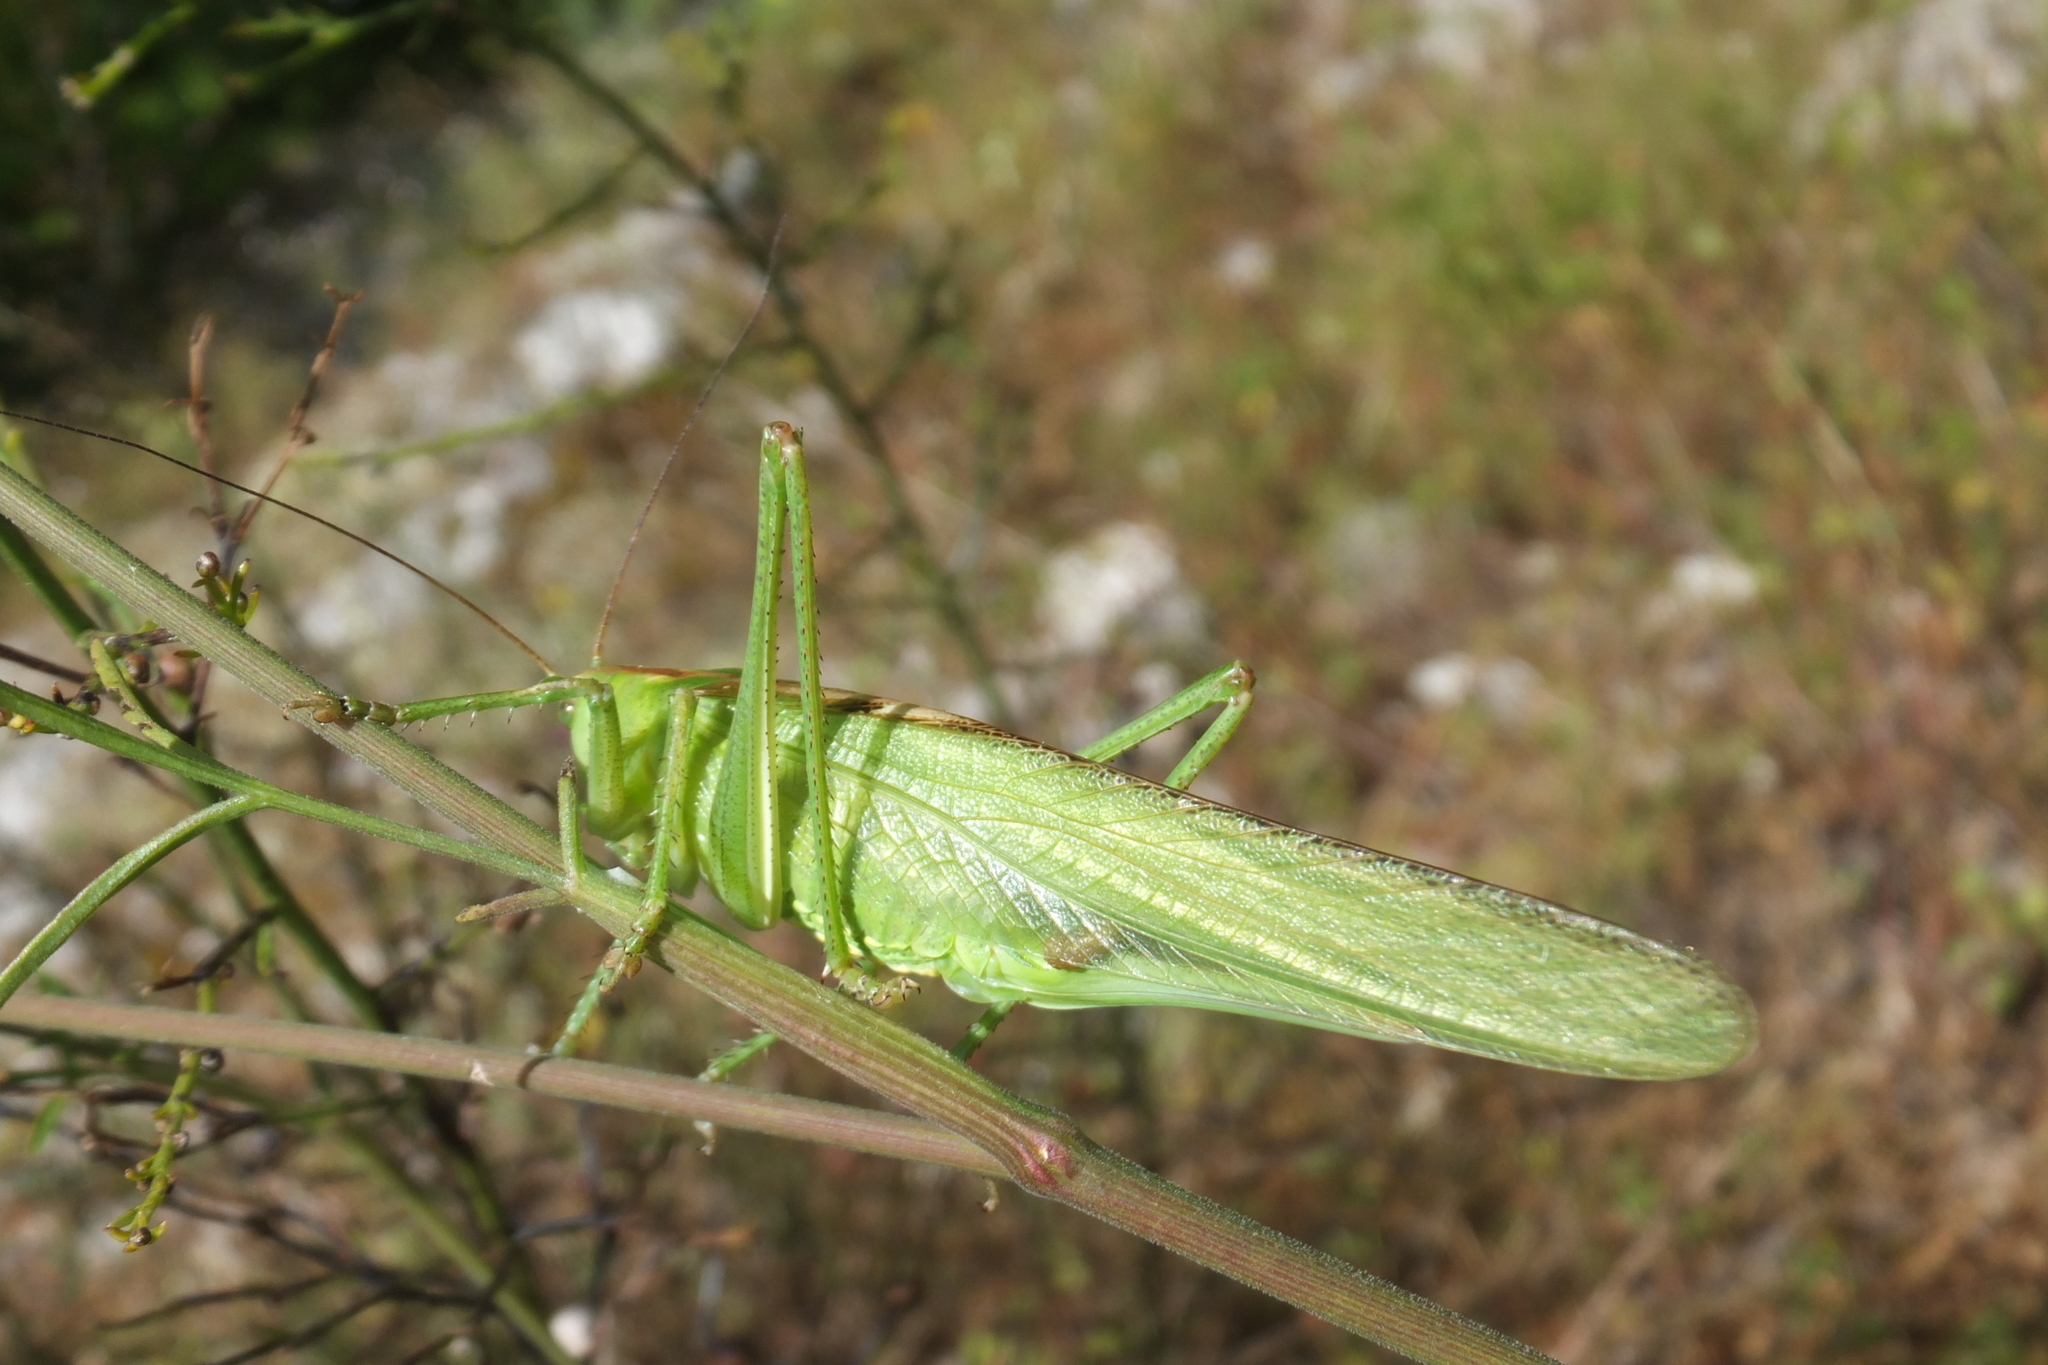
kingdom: Animalia
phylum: Arthropoda
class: Insecta
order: Orthoptera
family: Tettigoniidae
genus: Tettigonia
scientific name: Tettigonia viridissima
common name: Great green bush-cricket
